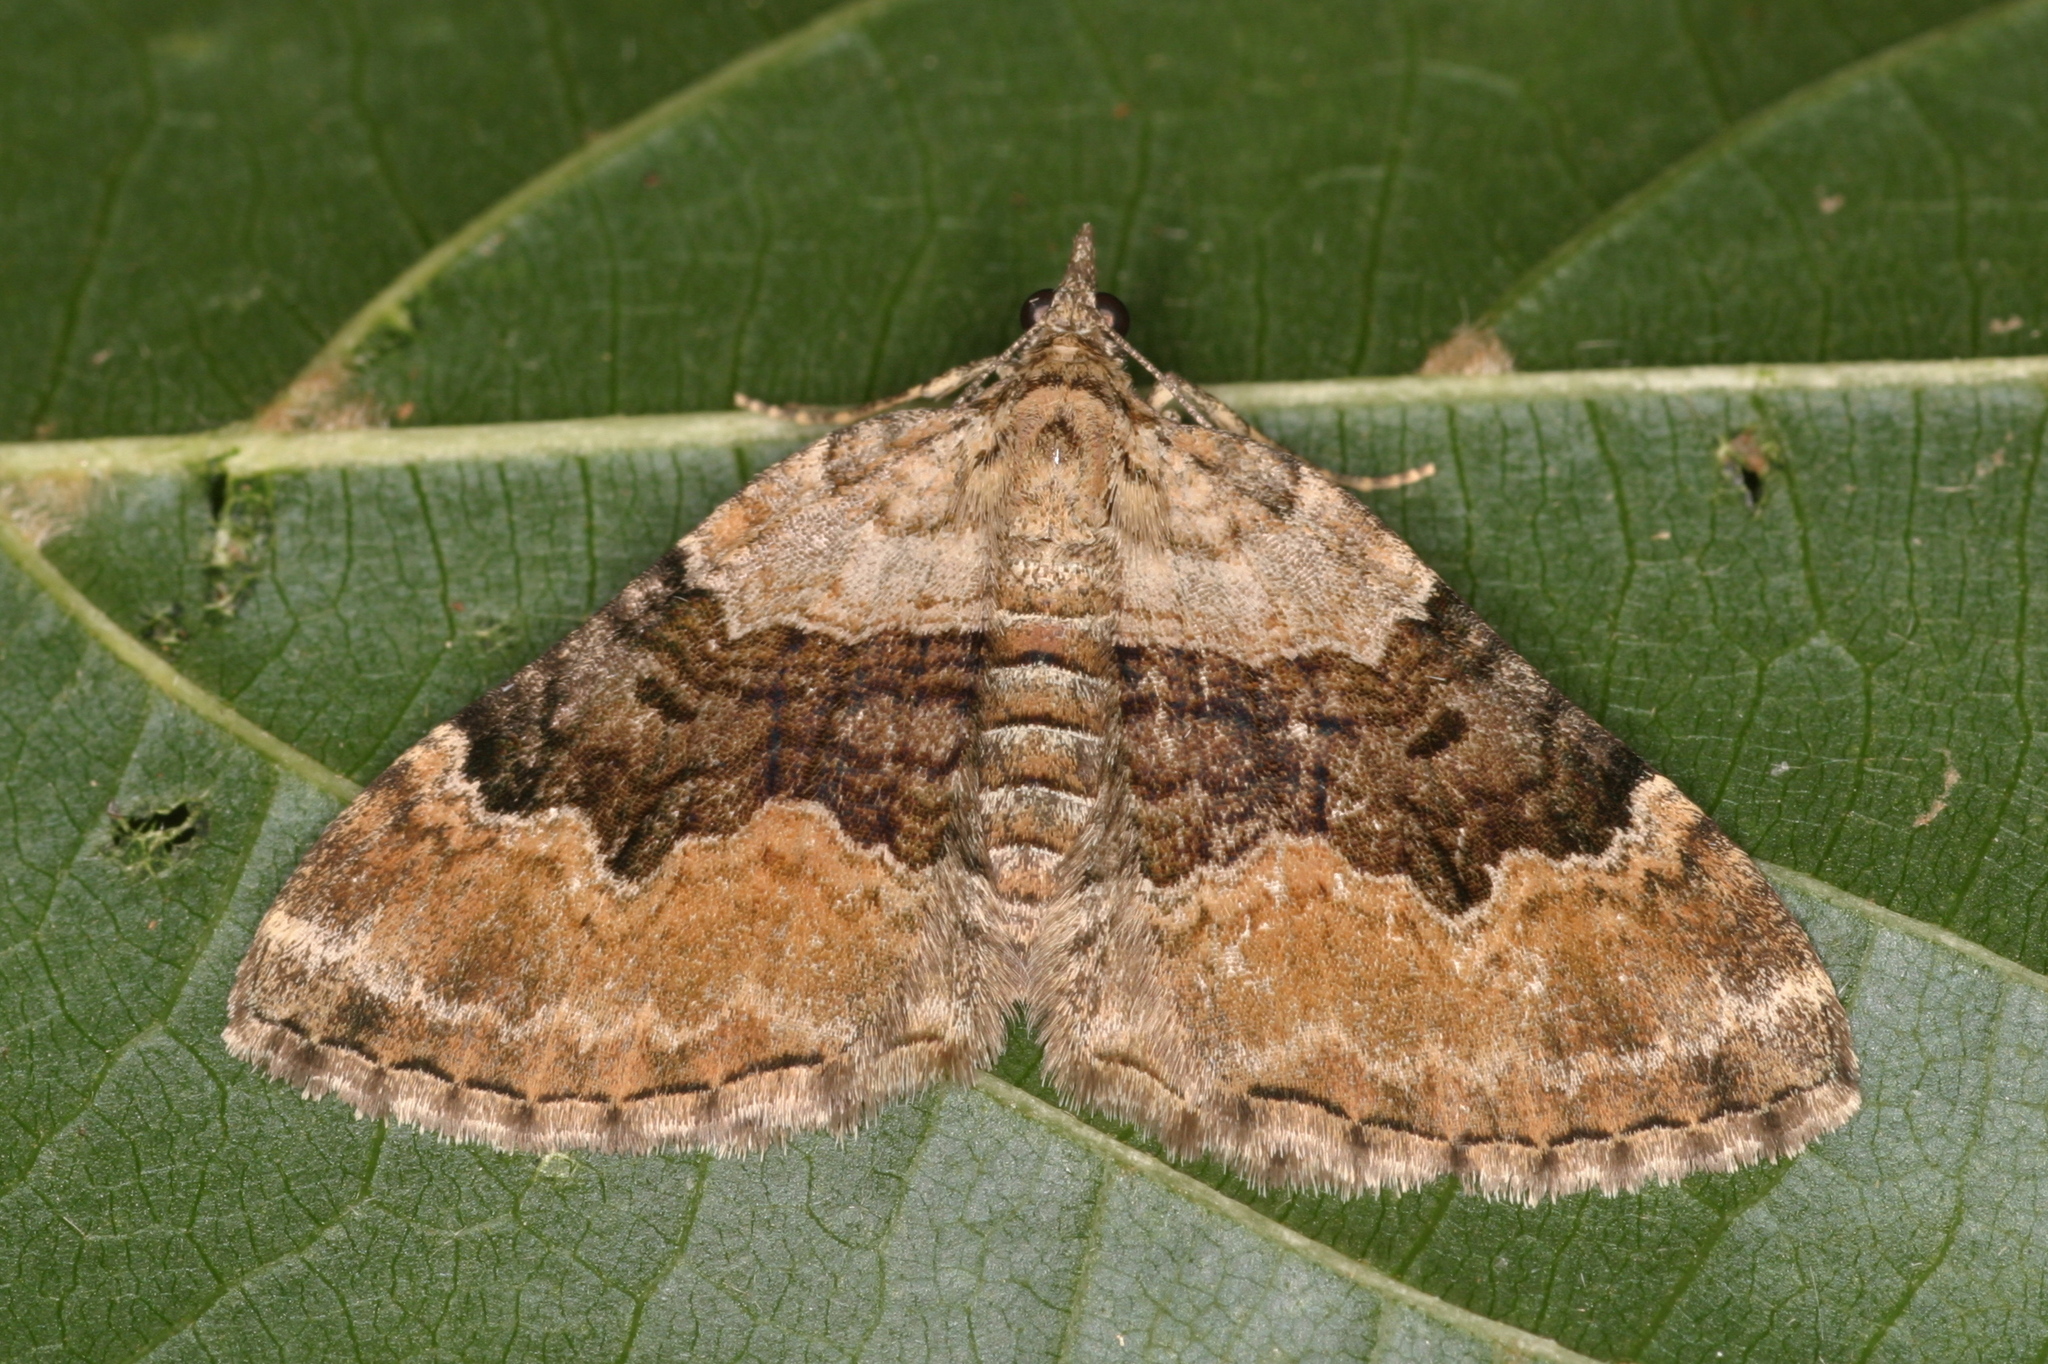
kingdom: Animalia
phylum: Arthropoda
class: Insecta
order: Lepidoptera
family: Geometridae
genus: Xanthorhoe
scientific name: Xanthorhoe quadrifasiata
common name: Large twin-spot carpet
